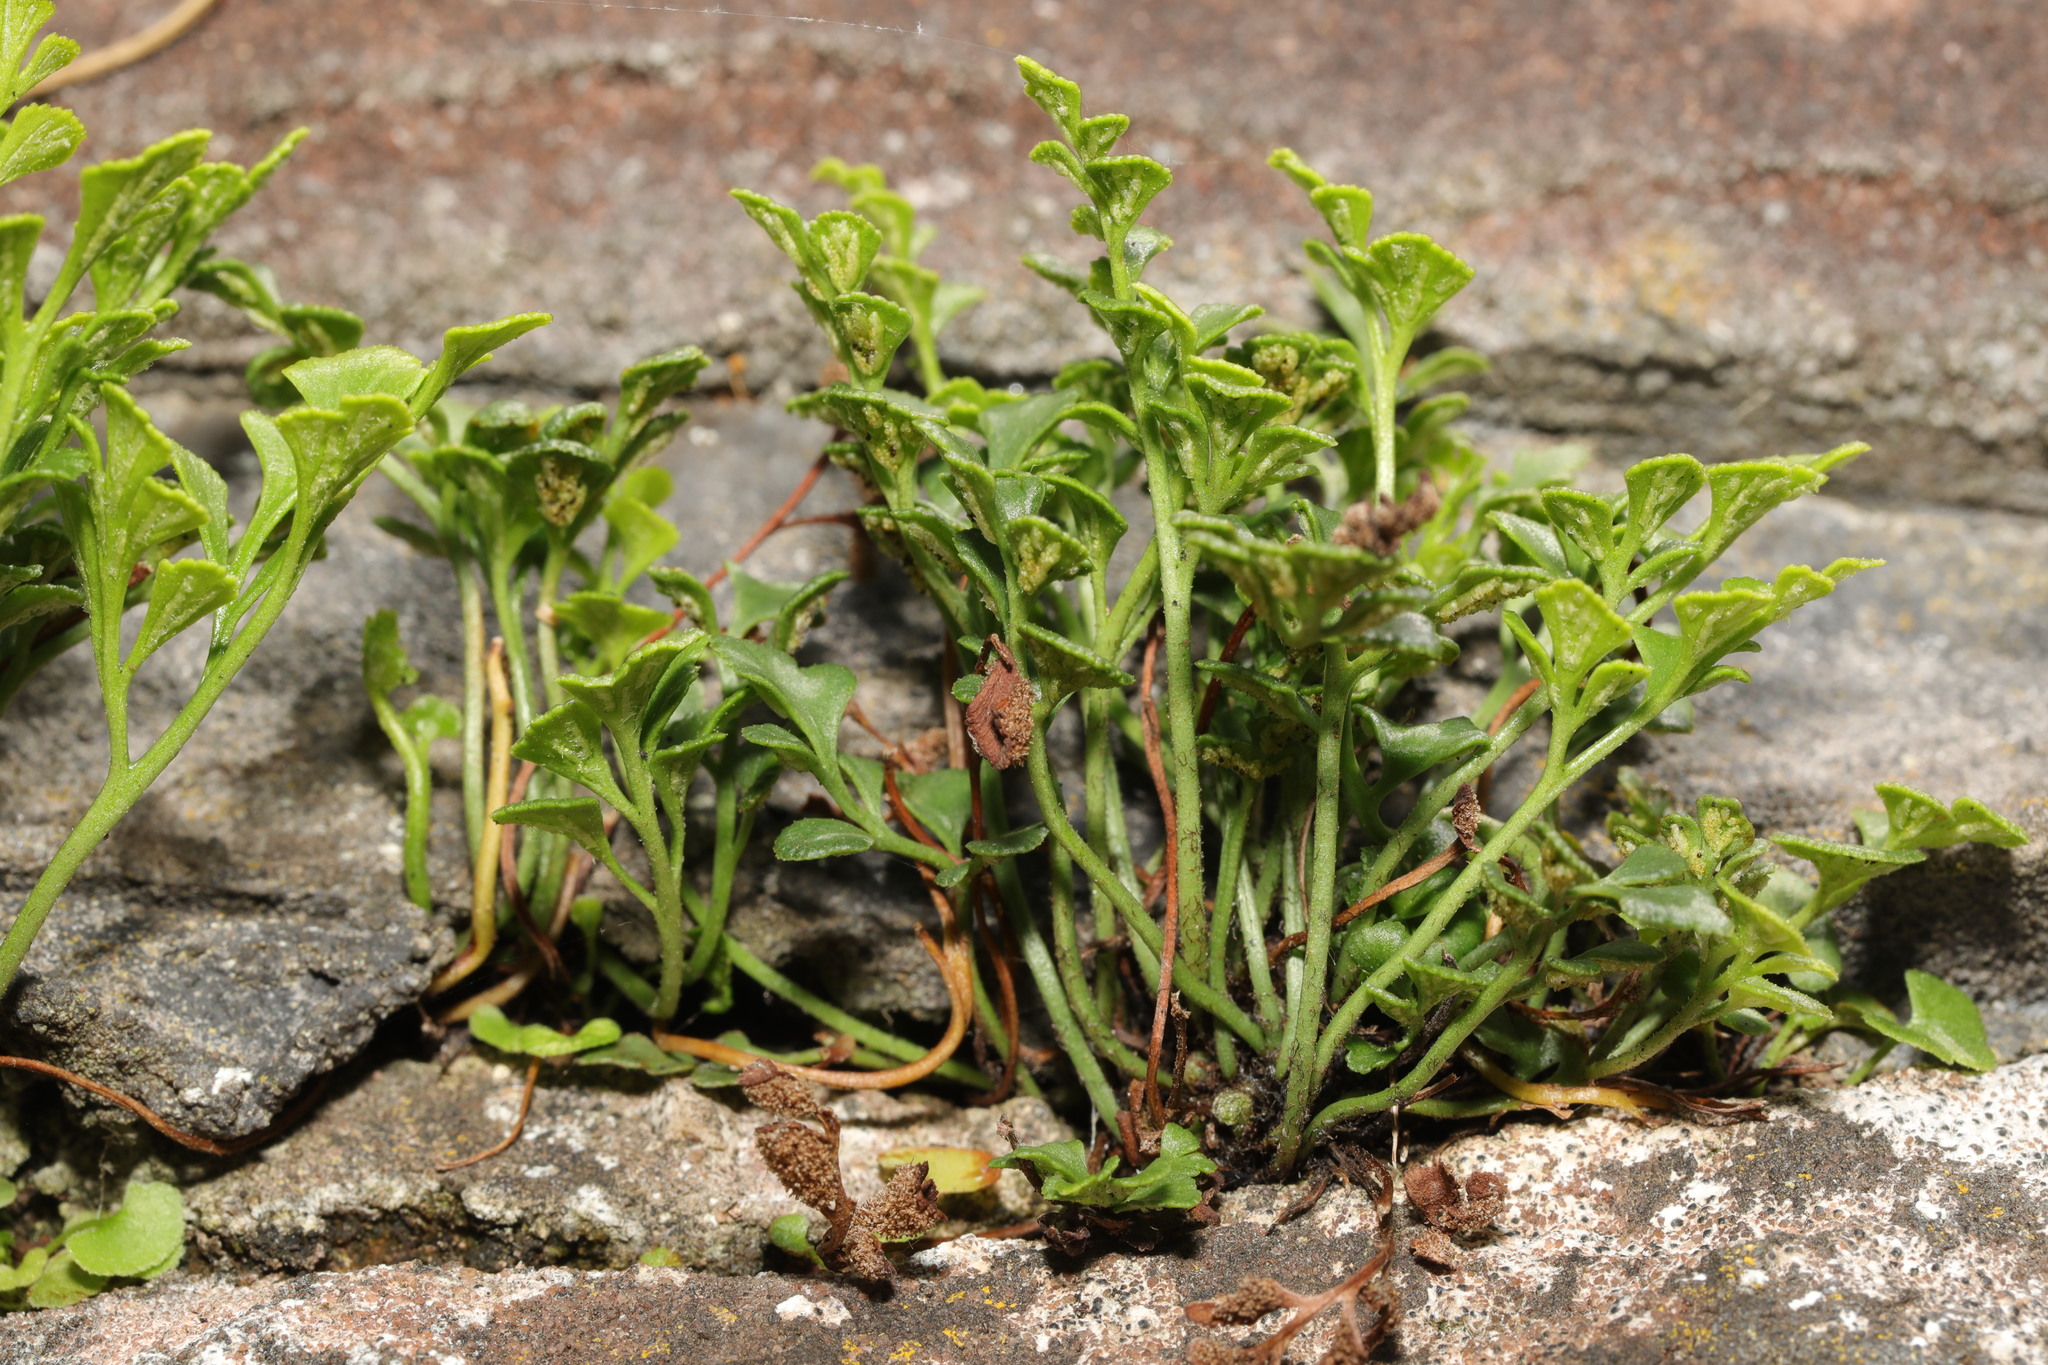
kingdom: Plantae
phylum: Tracheophyta
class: Polypodiopsida
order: Polypodiales
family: Aspleniaceae
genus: Asplenium
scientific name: Asplenium ruta-muraria
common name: Wall-rue
